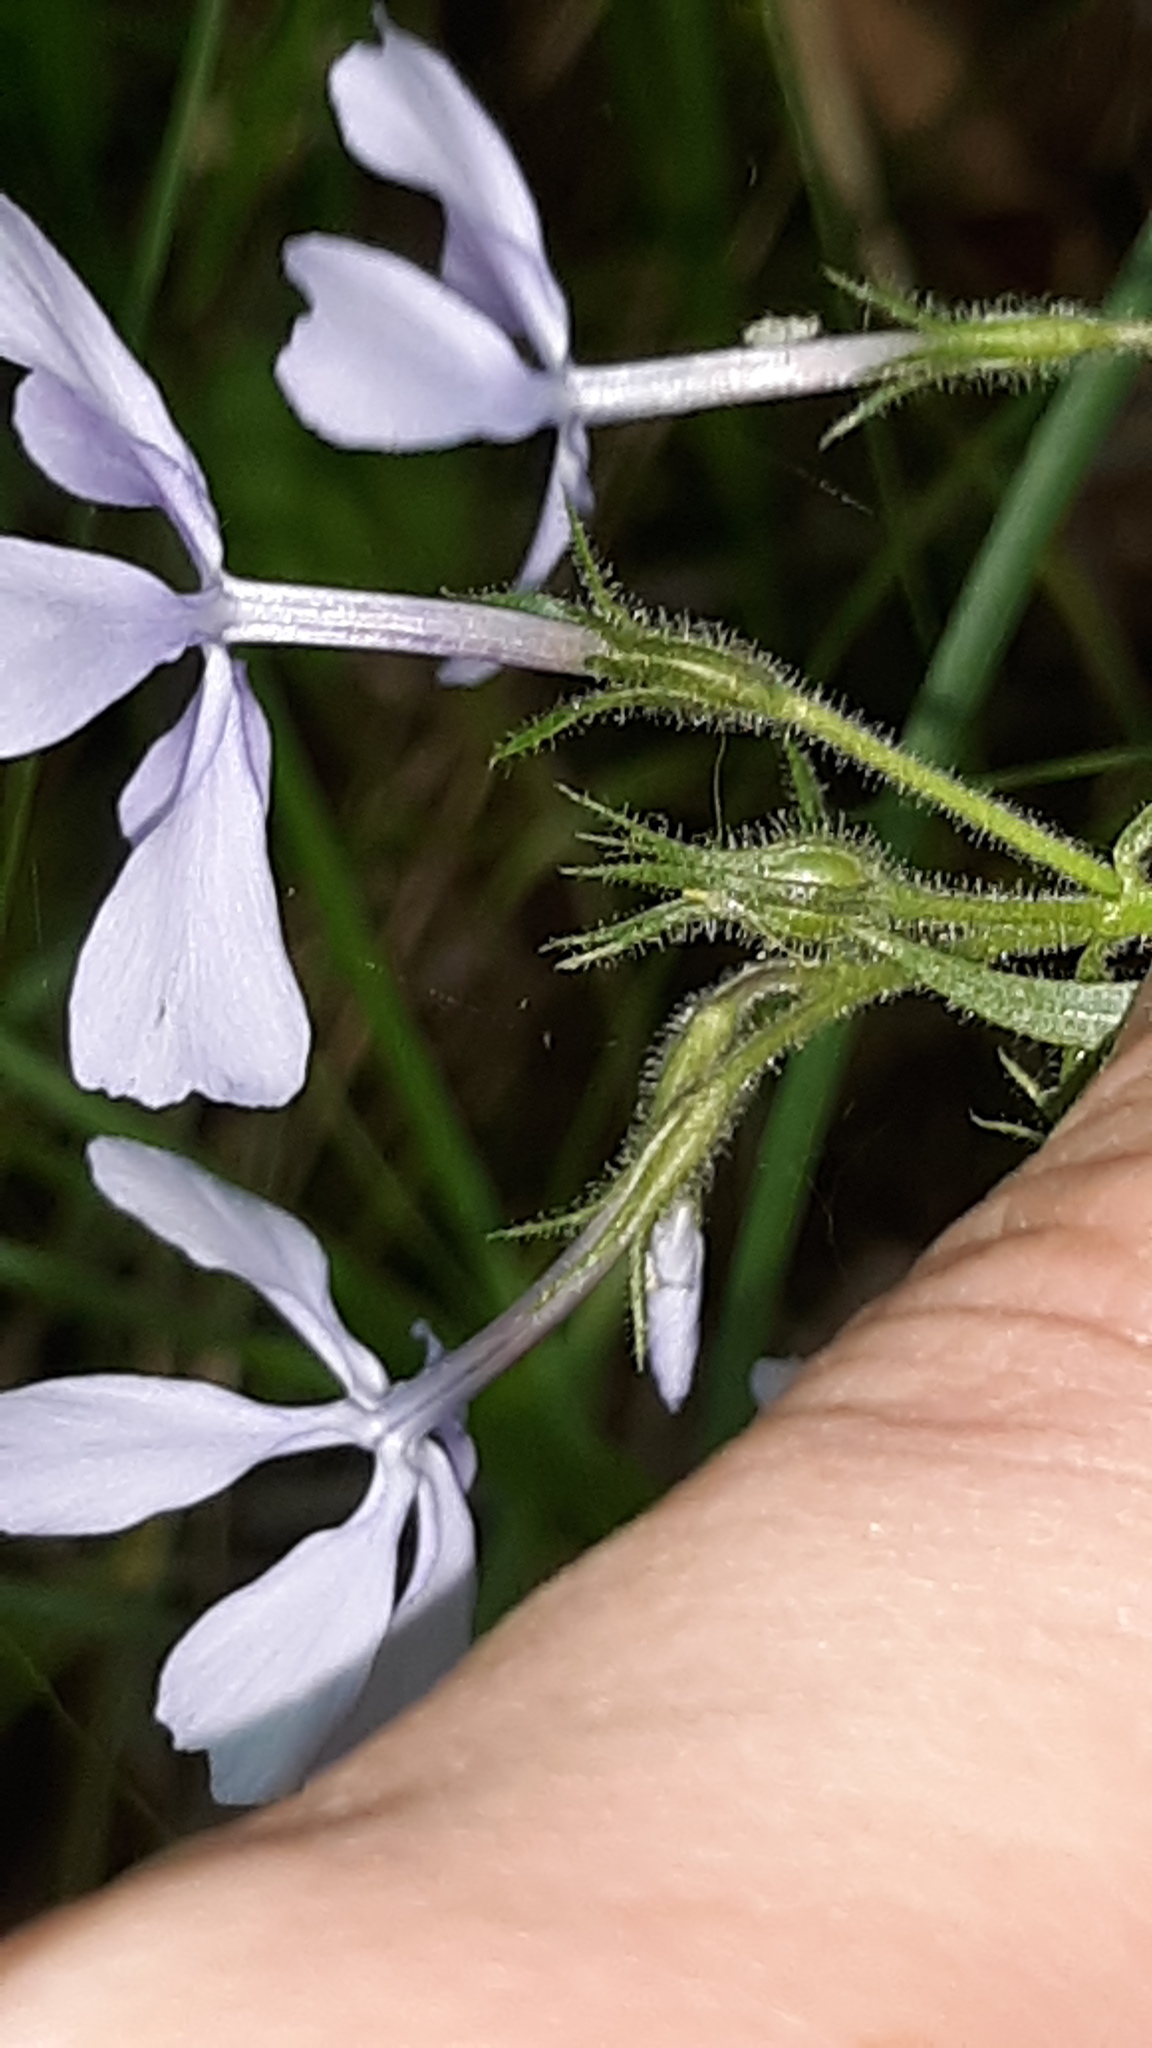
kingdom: Plantae
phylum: Tracheophyta
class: Magnoliopsida
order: Ericales
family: Polemoniaceae
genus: Phlox
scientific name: Phlox divaricata
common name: Blue phlox
